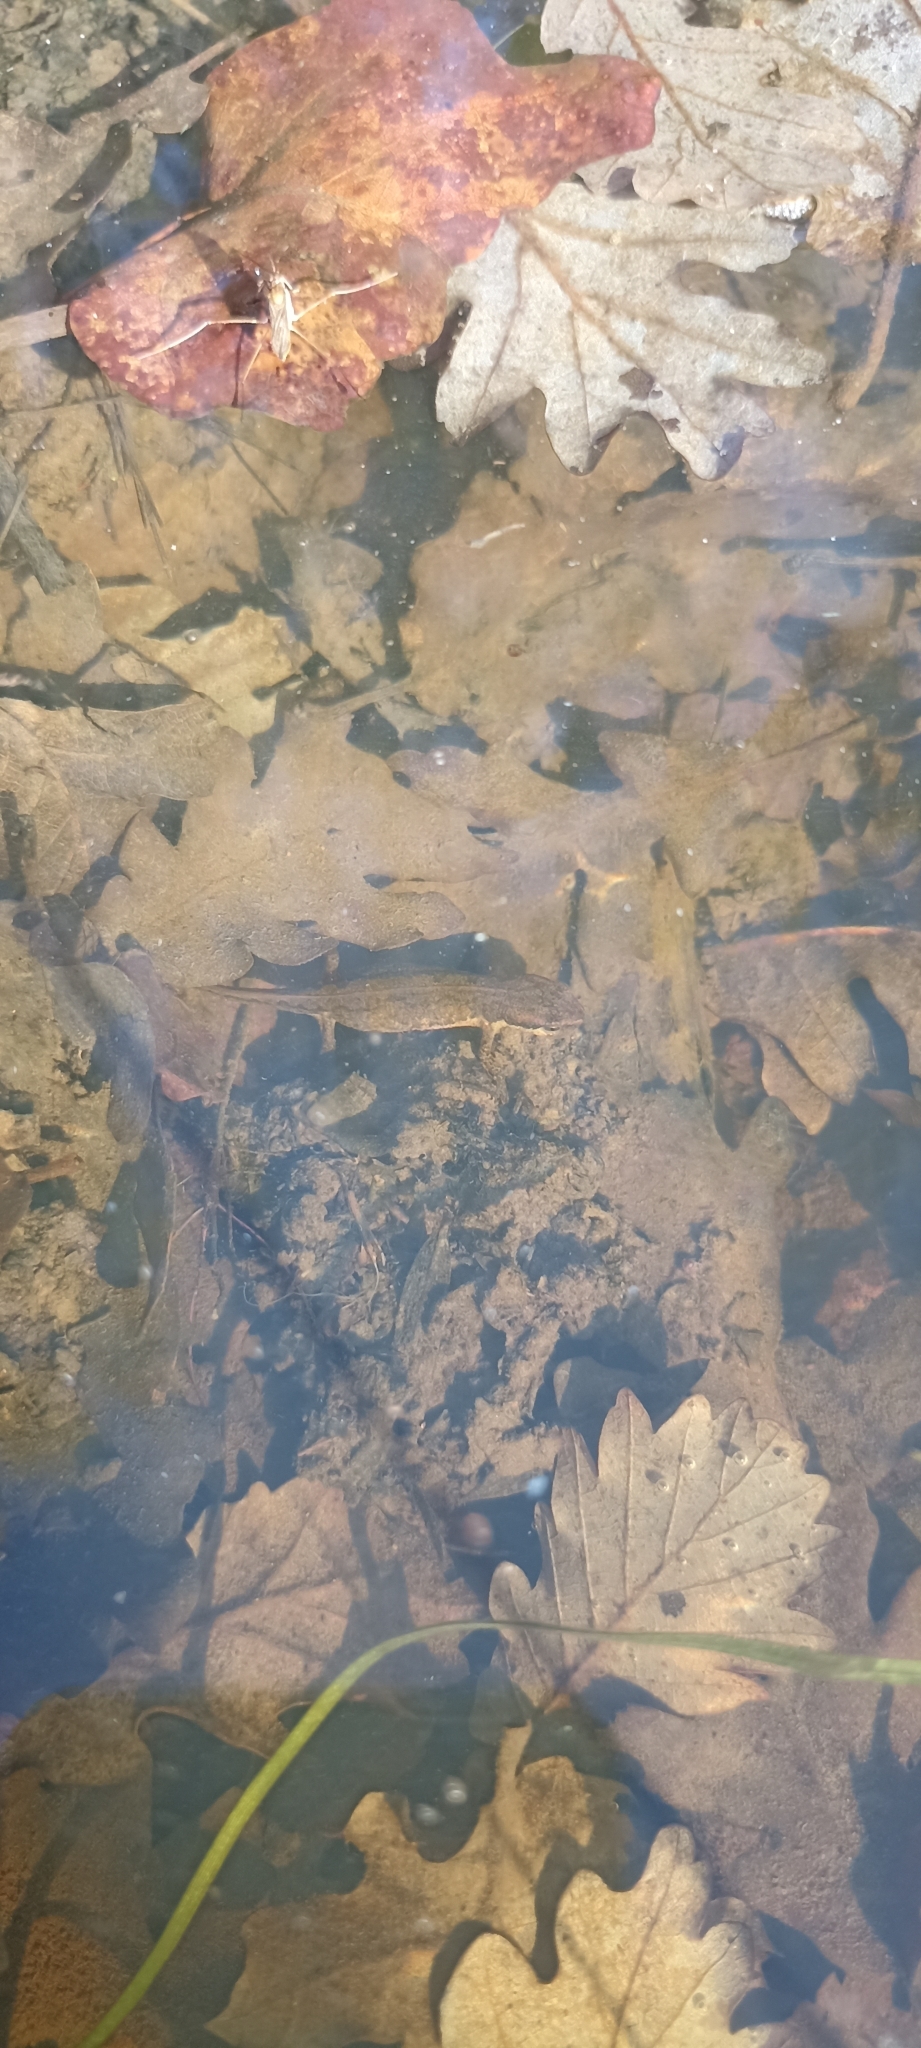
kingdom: Animalia
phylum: Chordata
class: Amphibia
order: Caudata
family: Salamandridae
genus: Lissotriton
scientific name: Lissotriton helveticus
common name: Palmate newt
